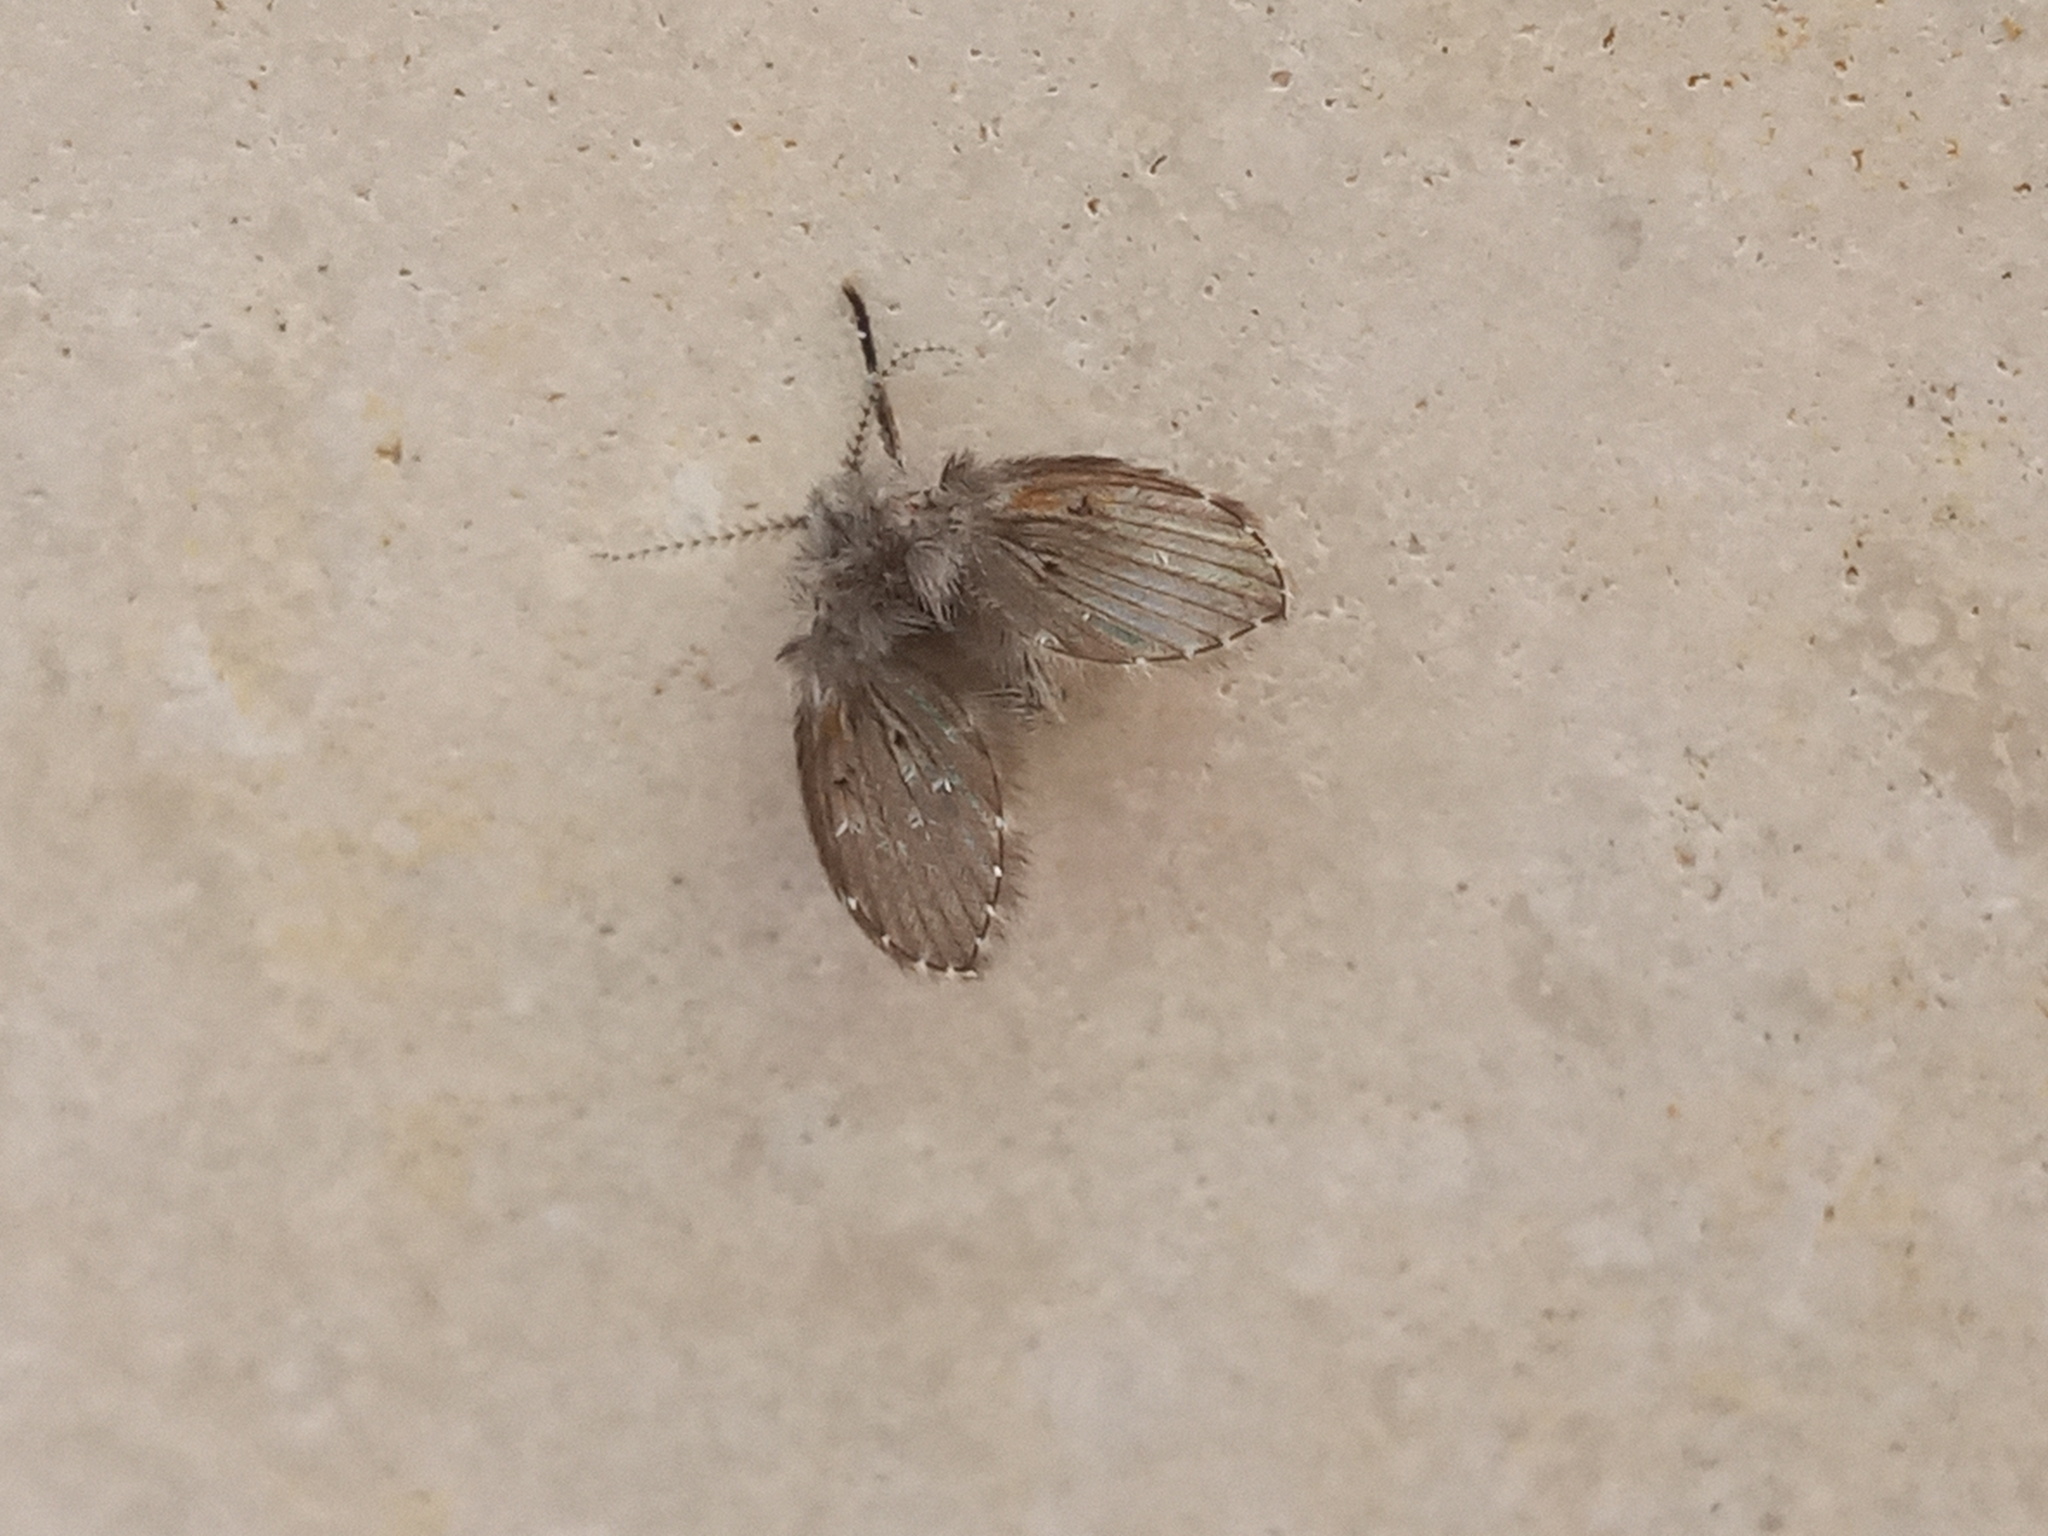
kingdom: Animalia
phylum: Arthropoda
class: Insecta
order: Diptera
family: Psychodidae
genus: Clogmia
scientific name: Clogmia albipunctatus
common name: White-spotted moth fly
